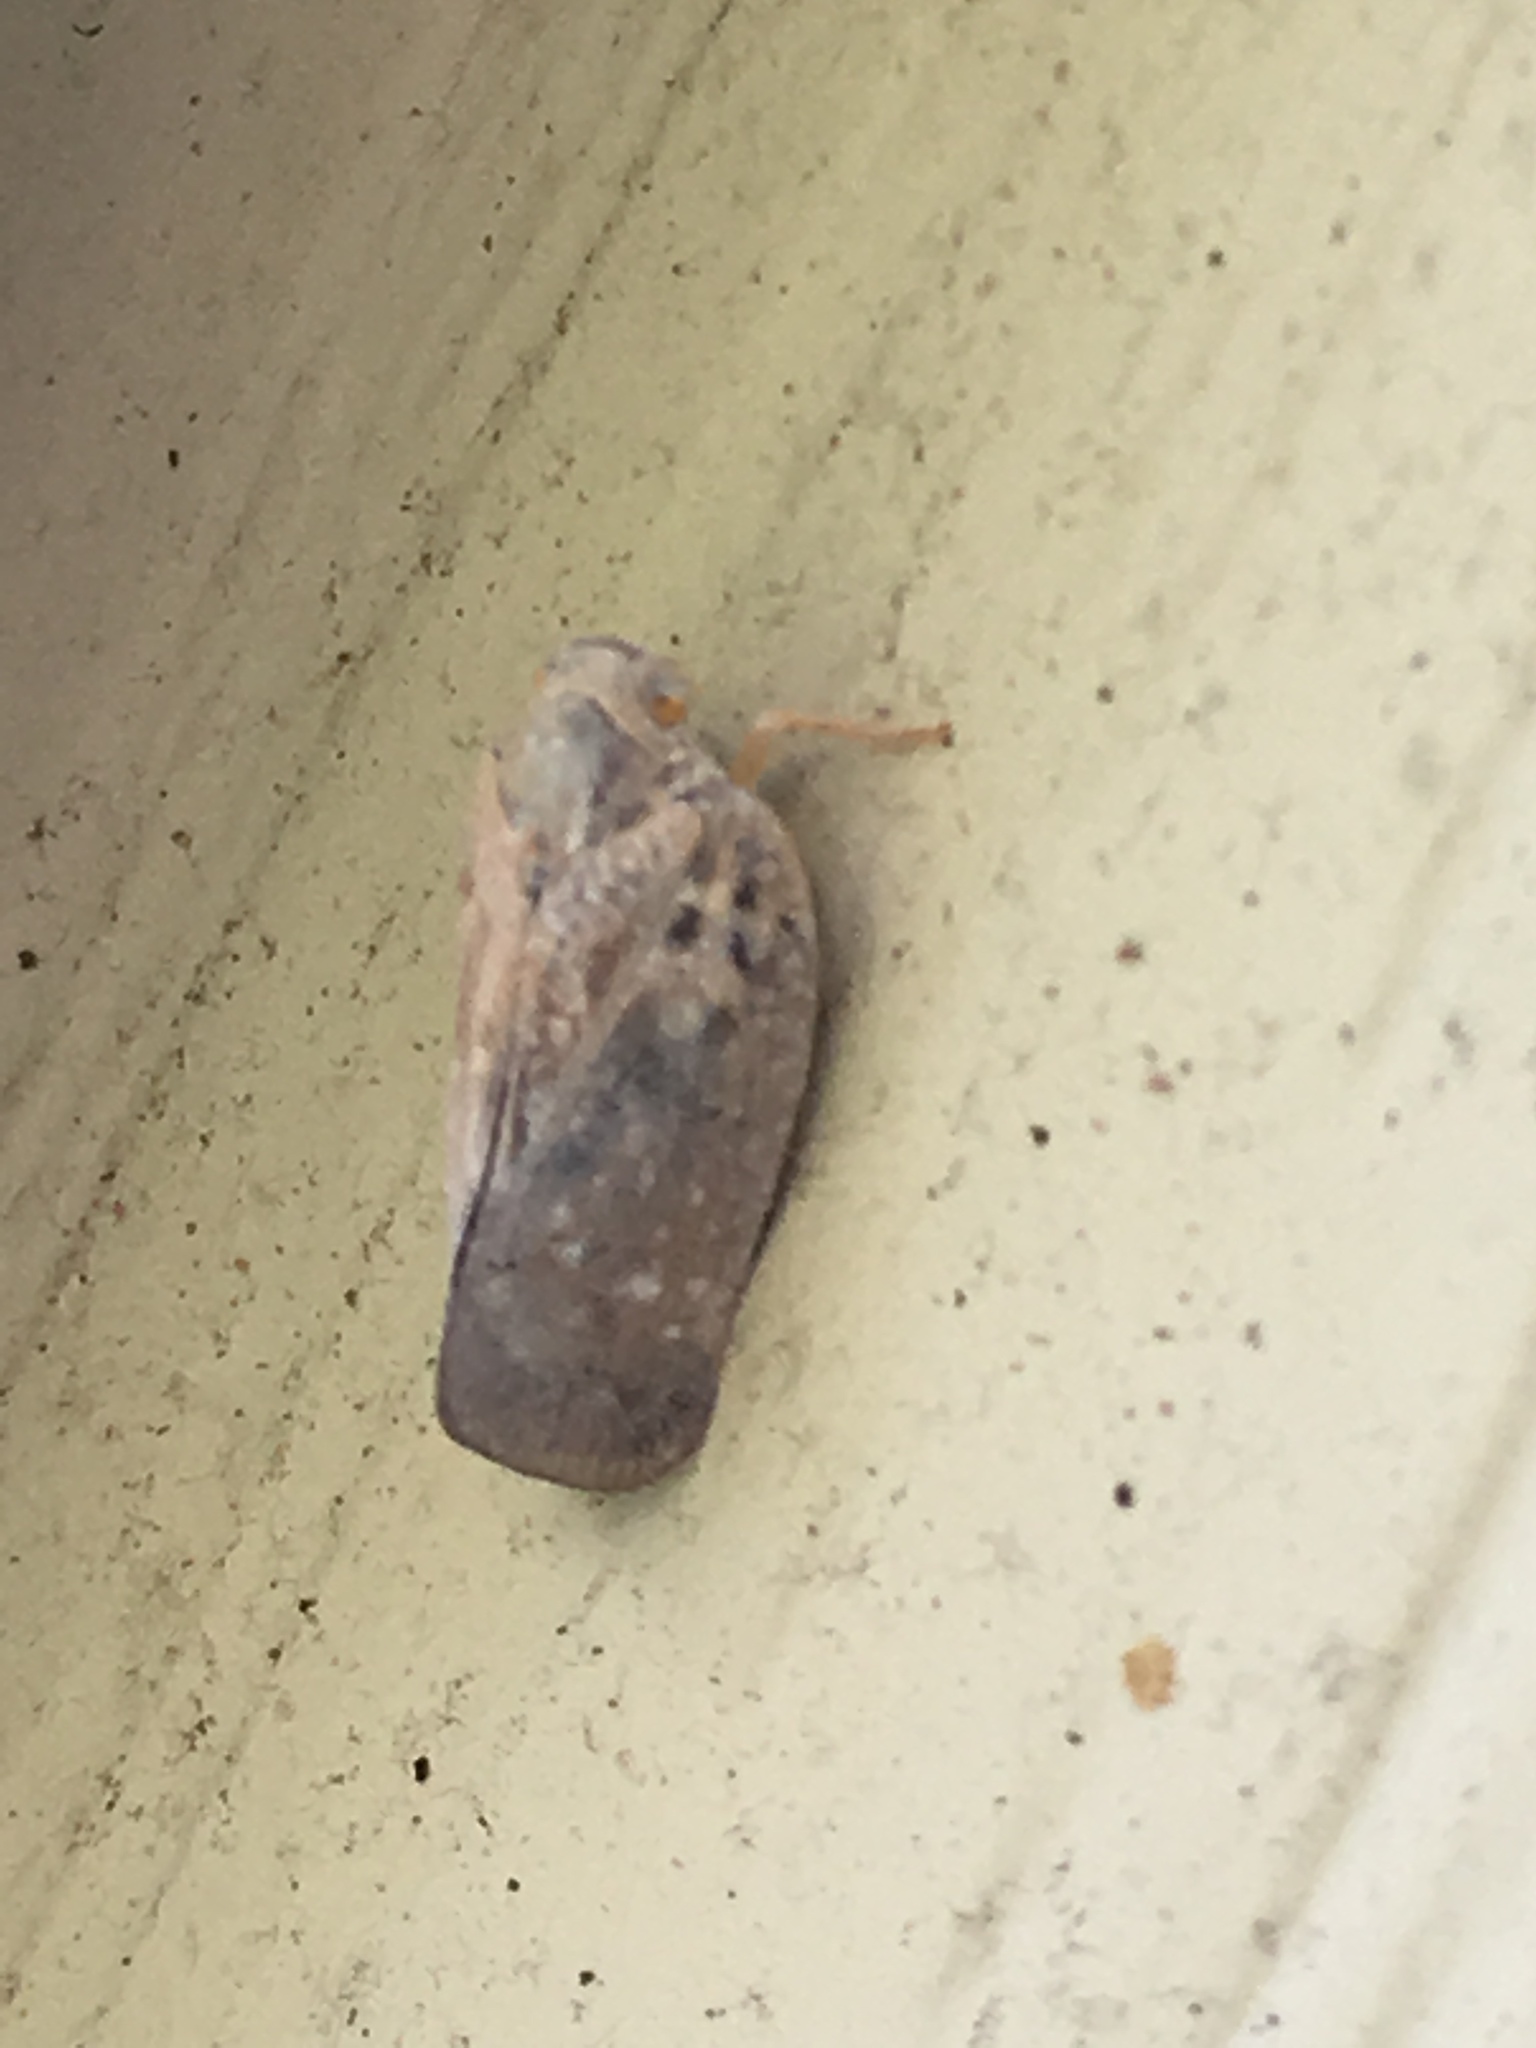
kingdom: Animalia
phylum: Arthropoda
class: Insecta
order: Hemiptera
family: Flatidae
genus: Metcalfa
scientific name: Metcalfa pruinosa
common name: Citrus flatid planthopper
